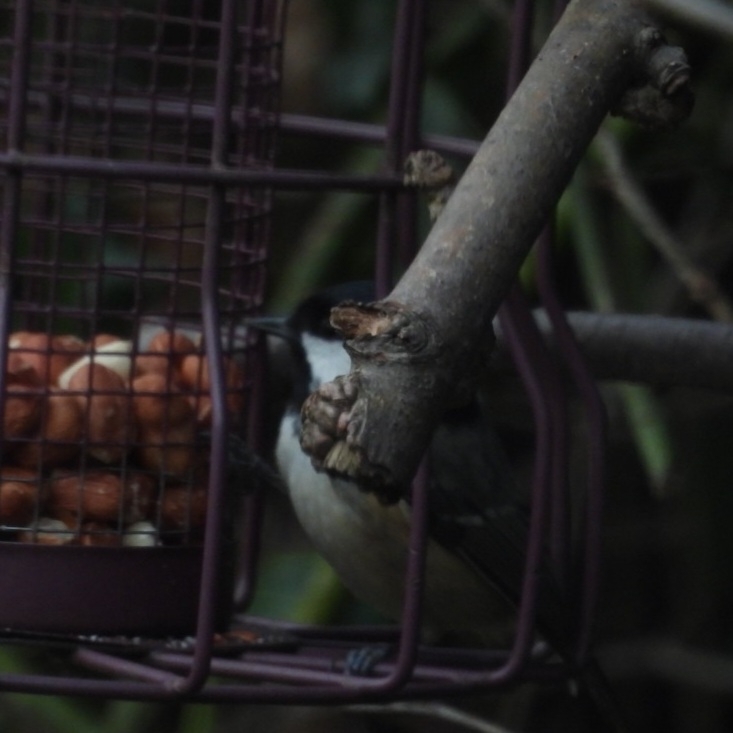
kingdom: Animalia
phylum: Chordata
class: Aves
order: Passeriformes
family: Paridae
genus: Periparus
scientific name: Periparus ater
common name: Coal tit
